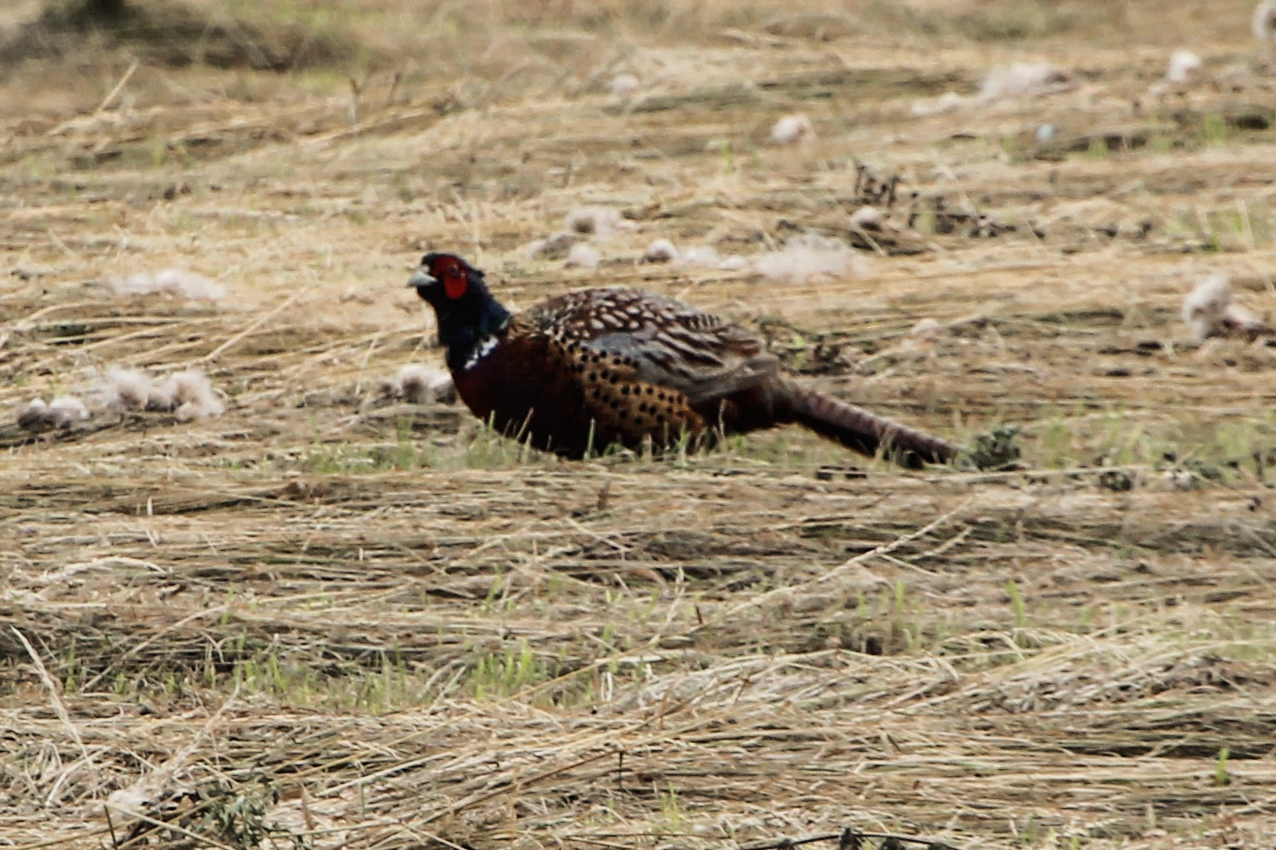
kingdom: Animalia
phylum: Chordata
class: Aves
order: Galliformes
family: Phasianidae
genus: Phasianus
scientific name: Phasianus colchicus
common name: Common pheasant
